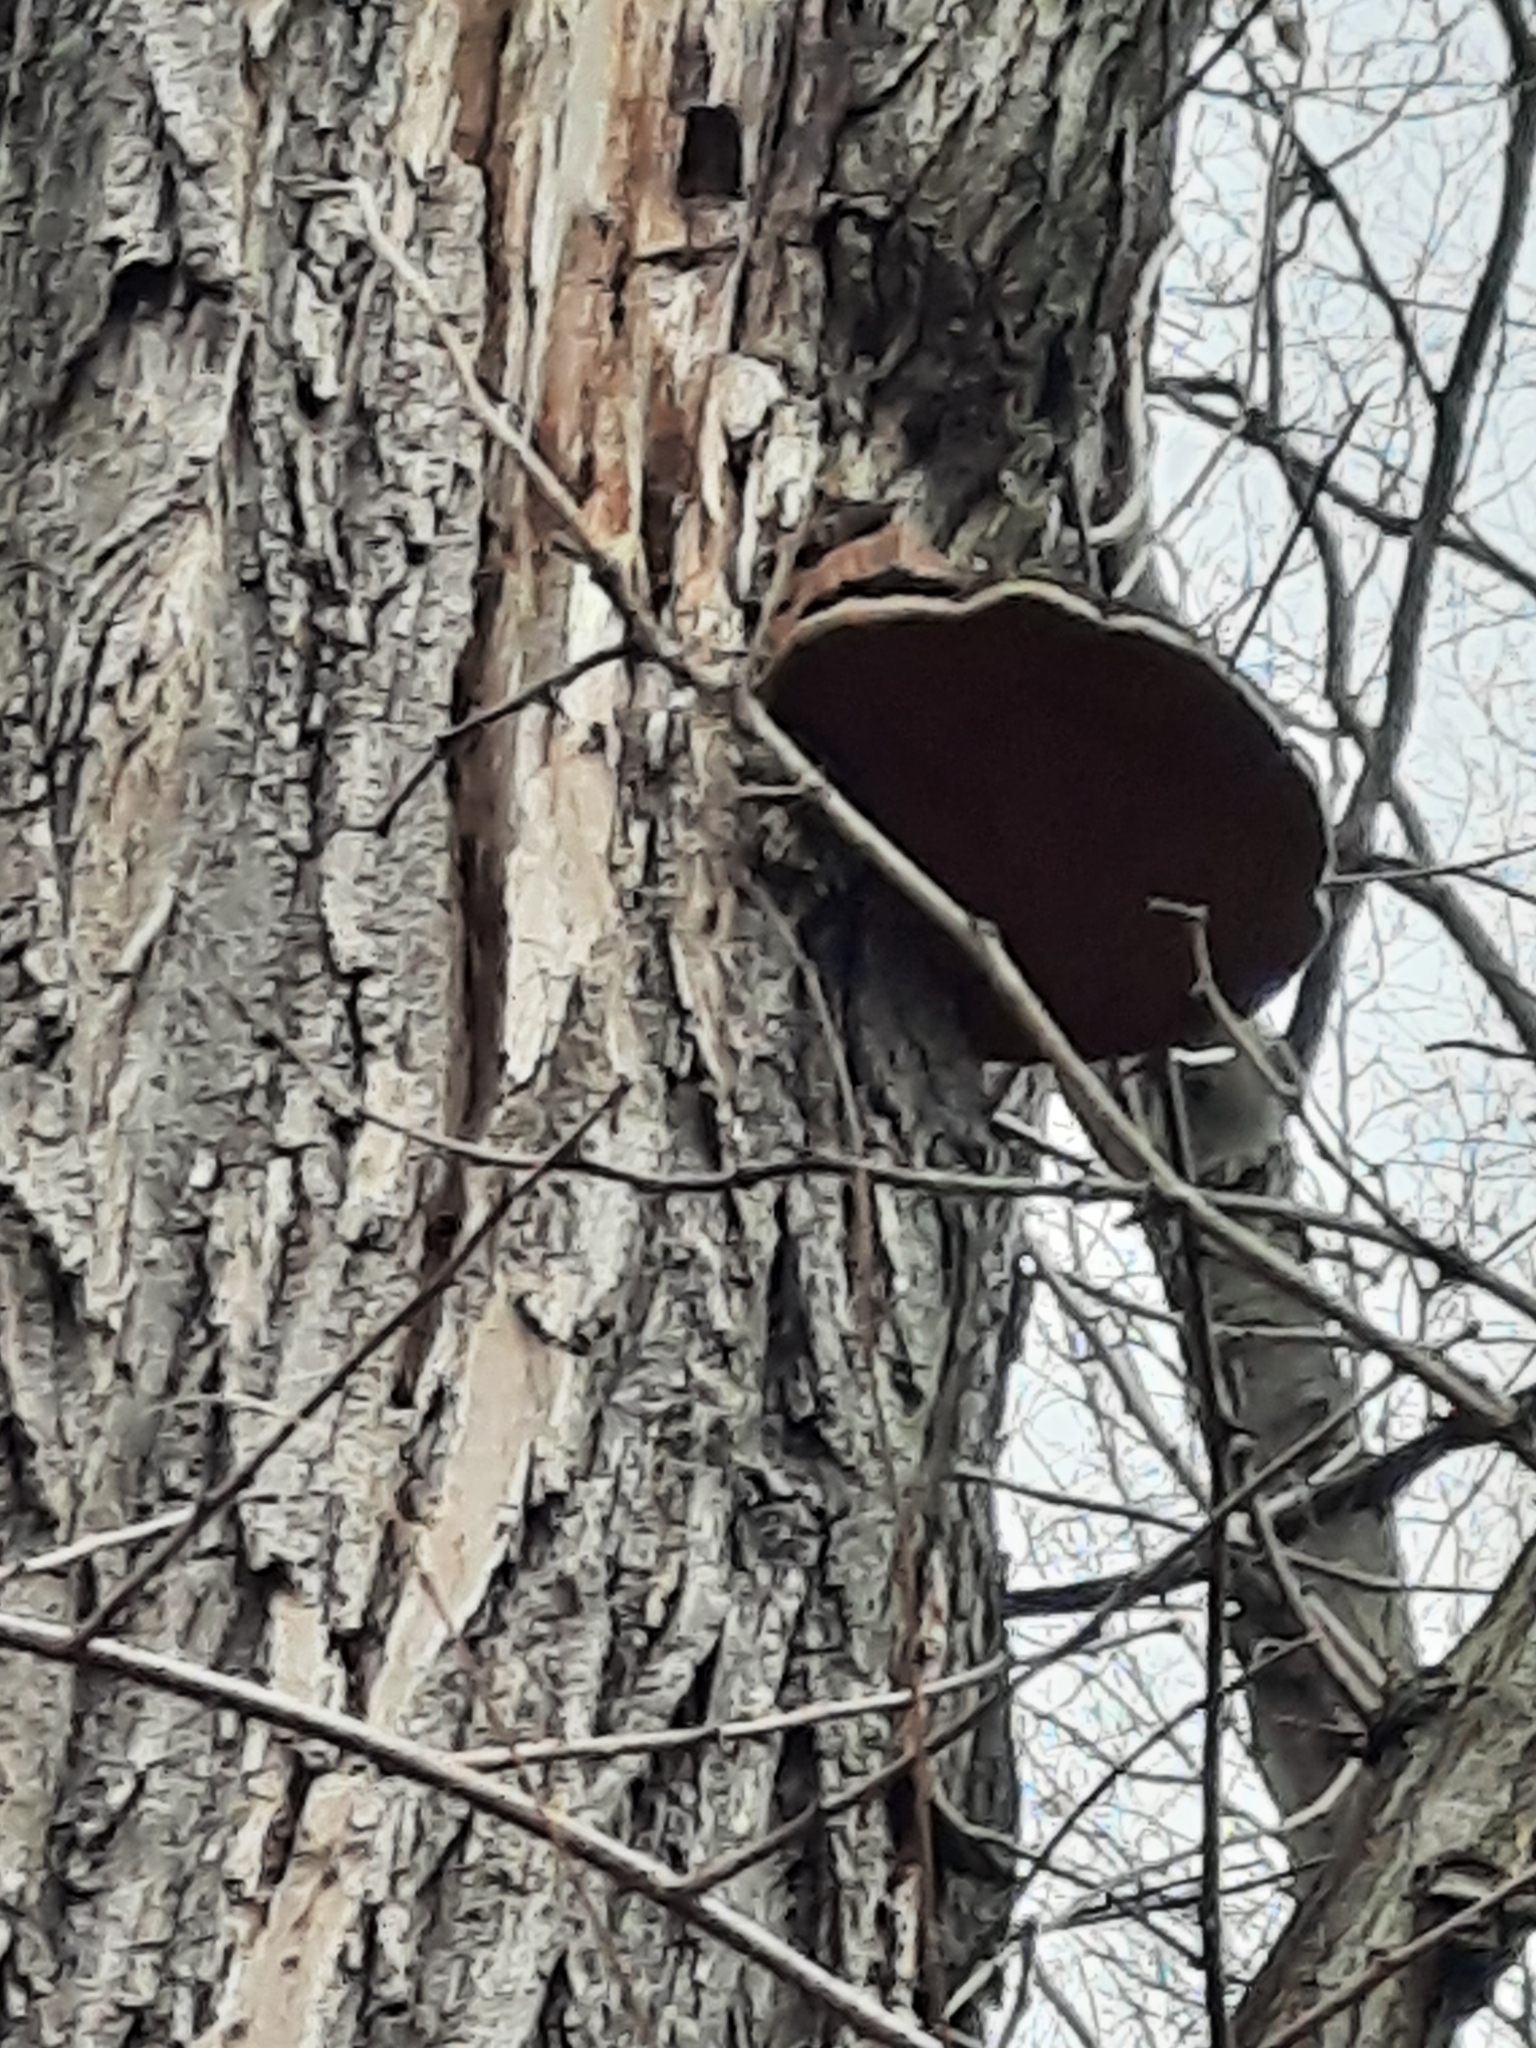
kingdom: Plantae
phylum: Tracheophyta
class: Magnoliopsida
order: Fabales
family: Fabaceae
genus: Robinia
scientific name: Robinia pseudoacacia
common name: Black locust
